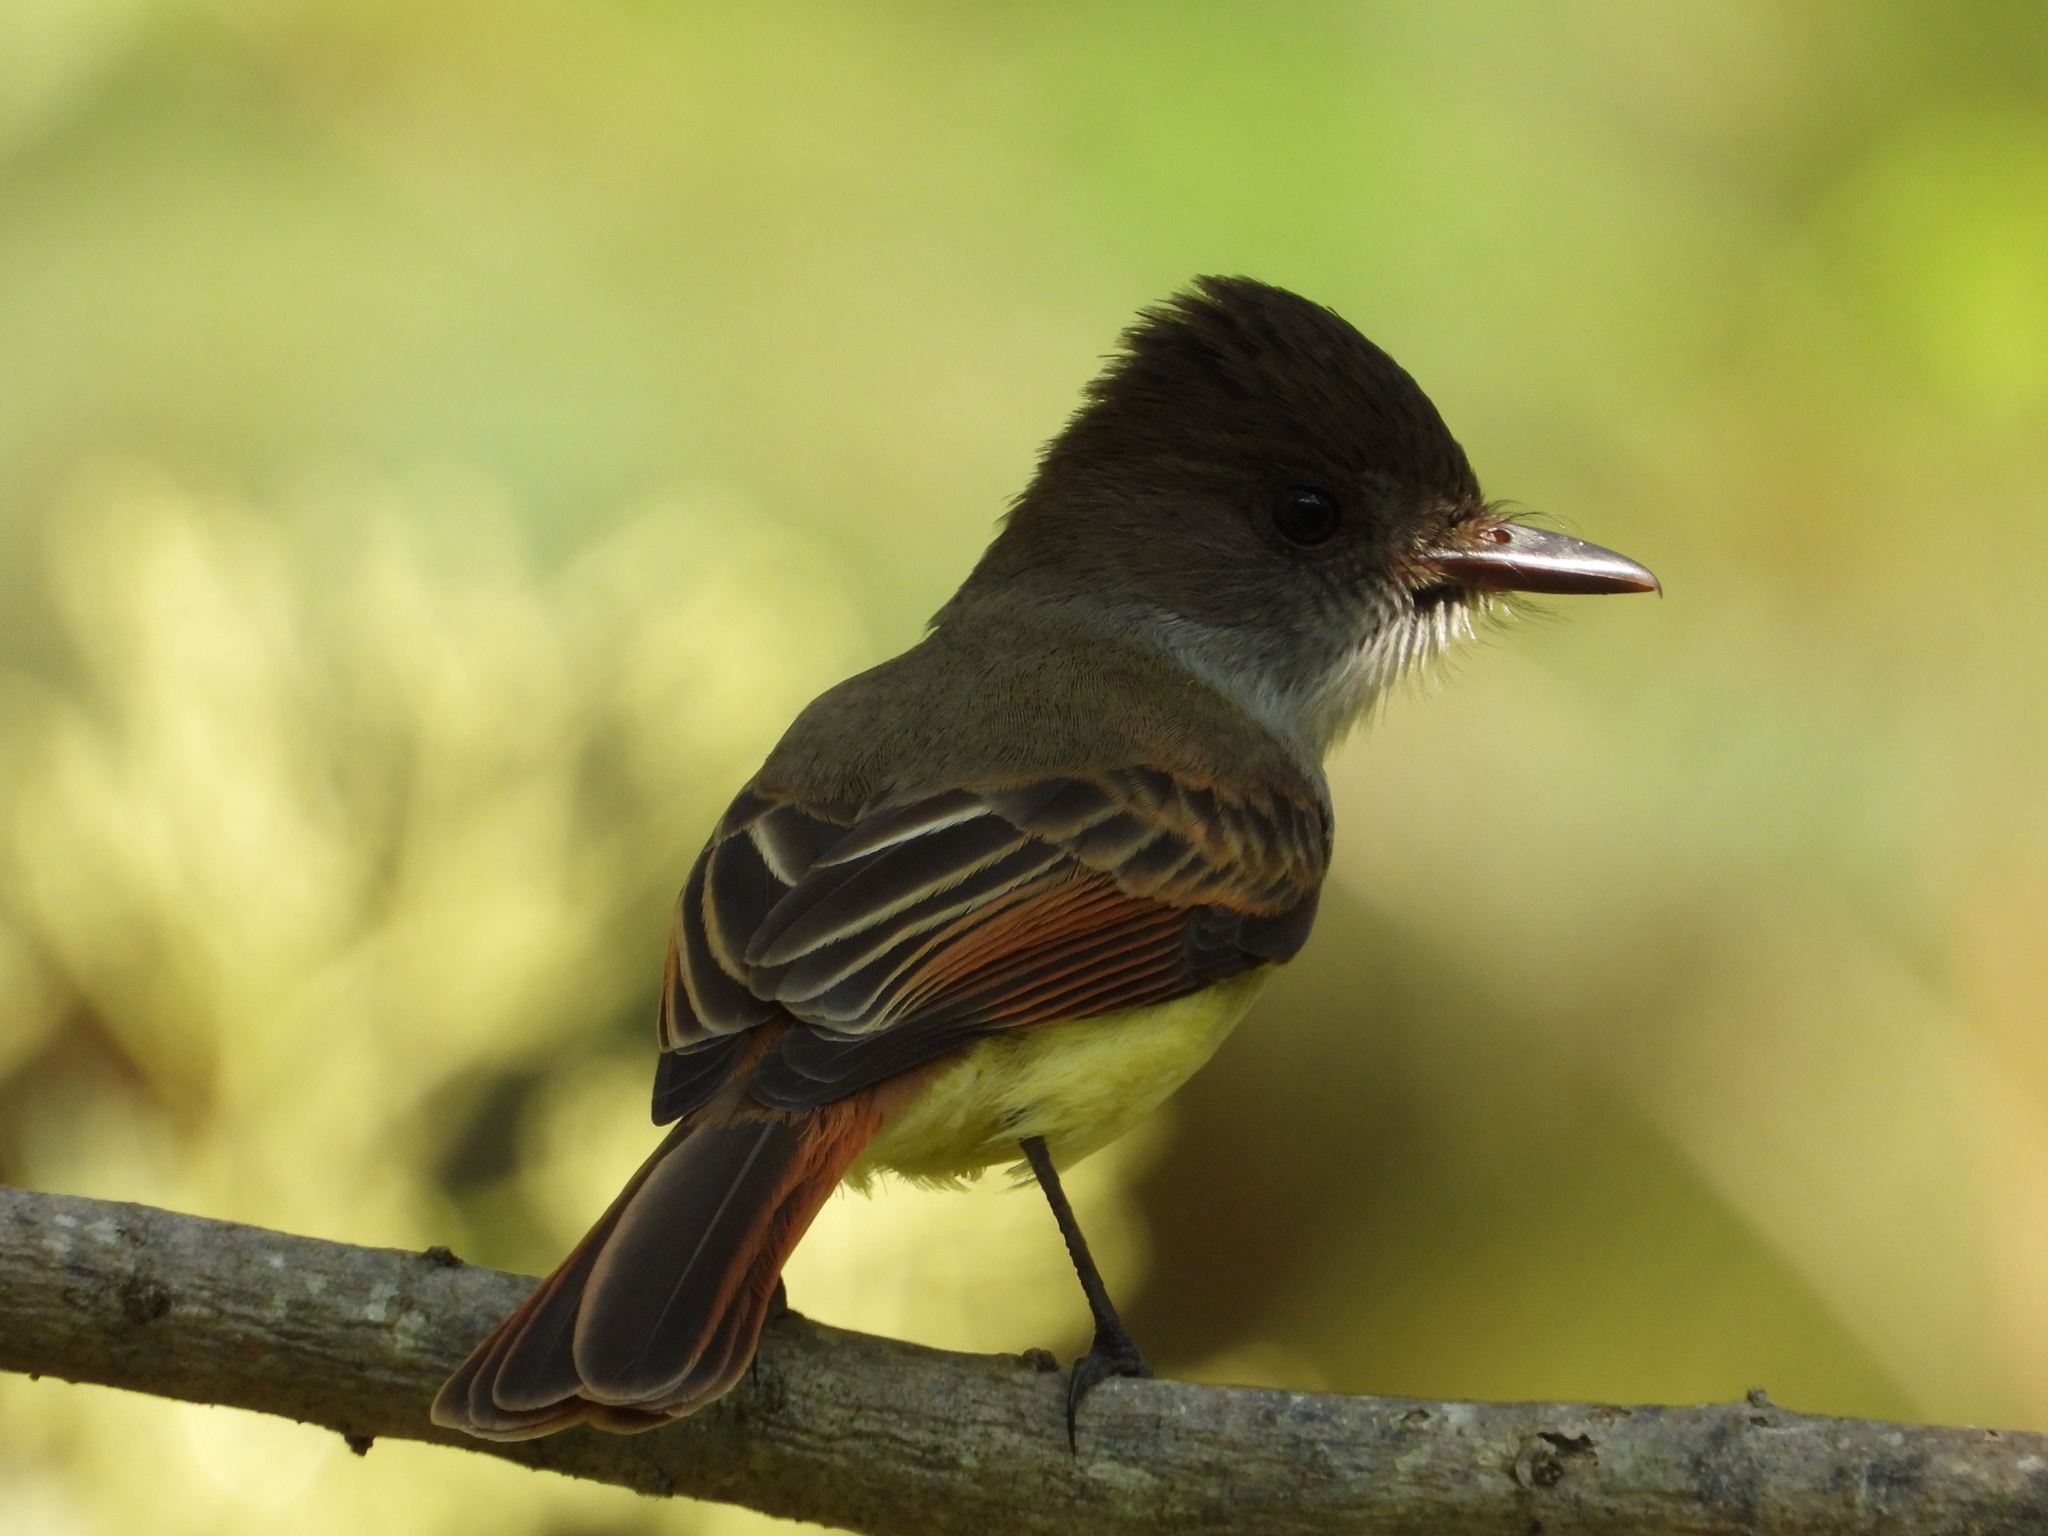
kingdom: Animalia
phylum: Chordata
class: Aves
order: Passeriformes
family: Tyrannidae
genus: Myiarchus
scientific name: Myiarchus tuberculifer
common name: Dusky-capped flycatcher
